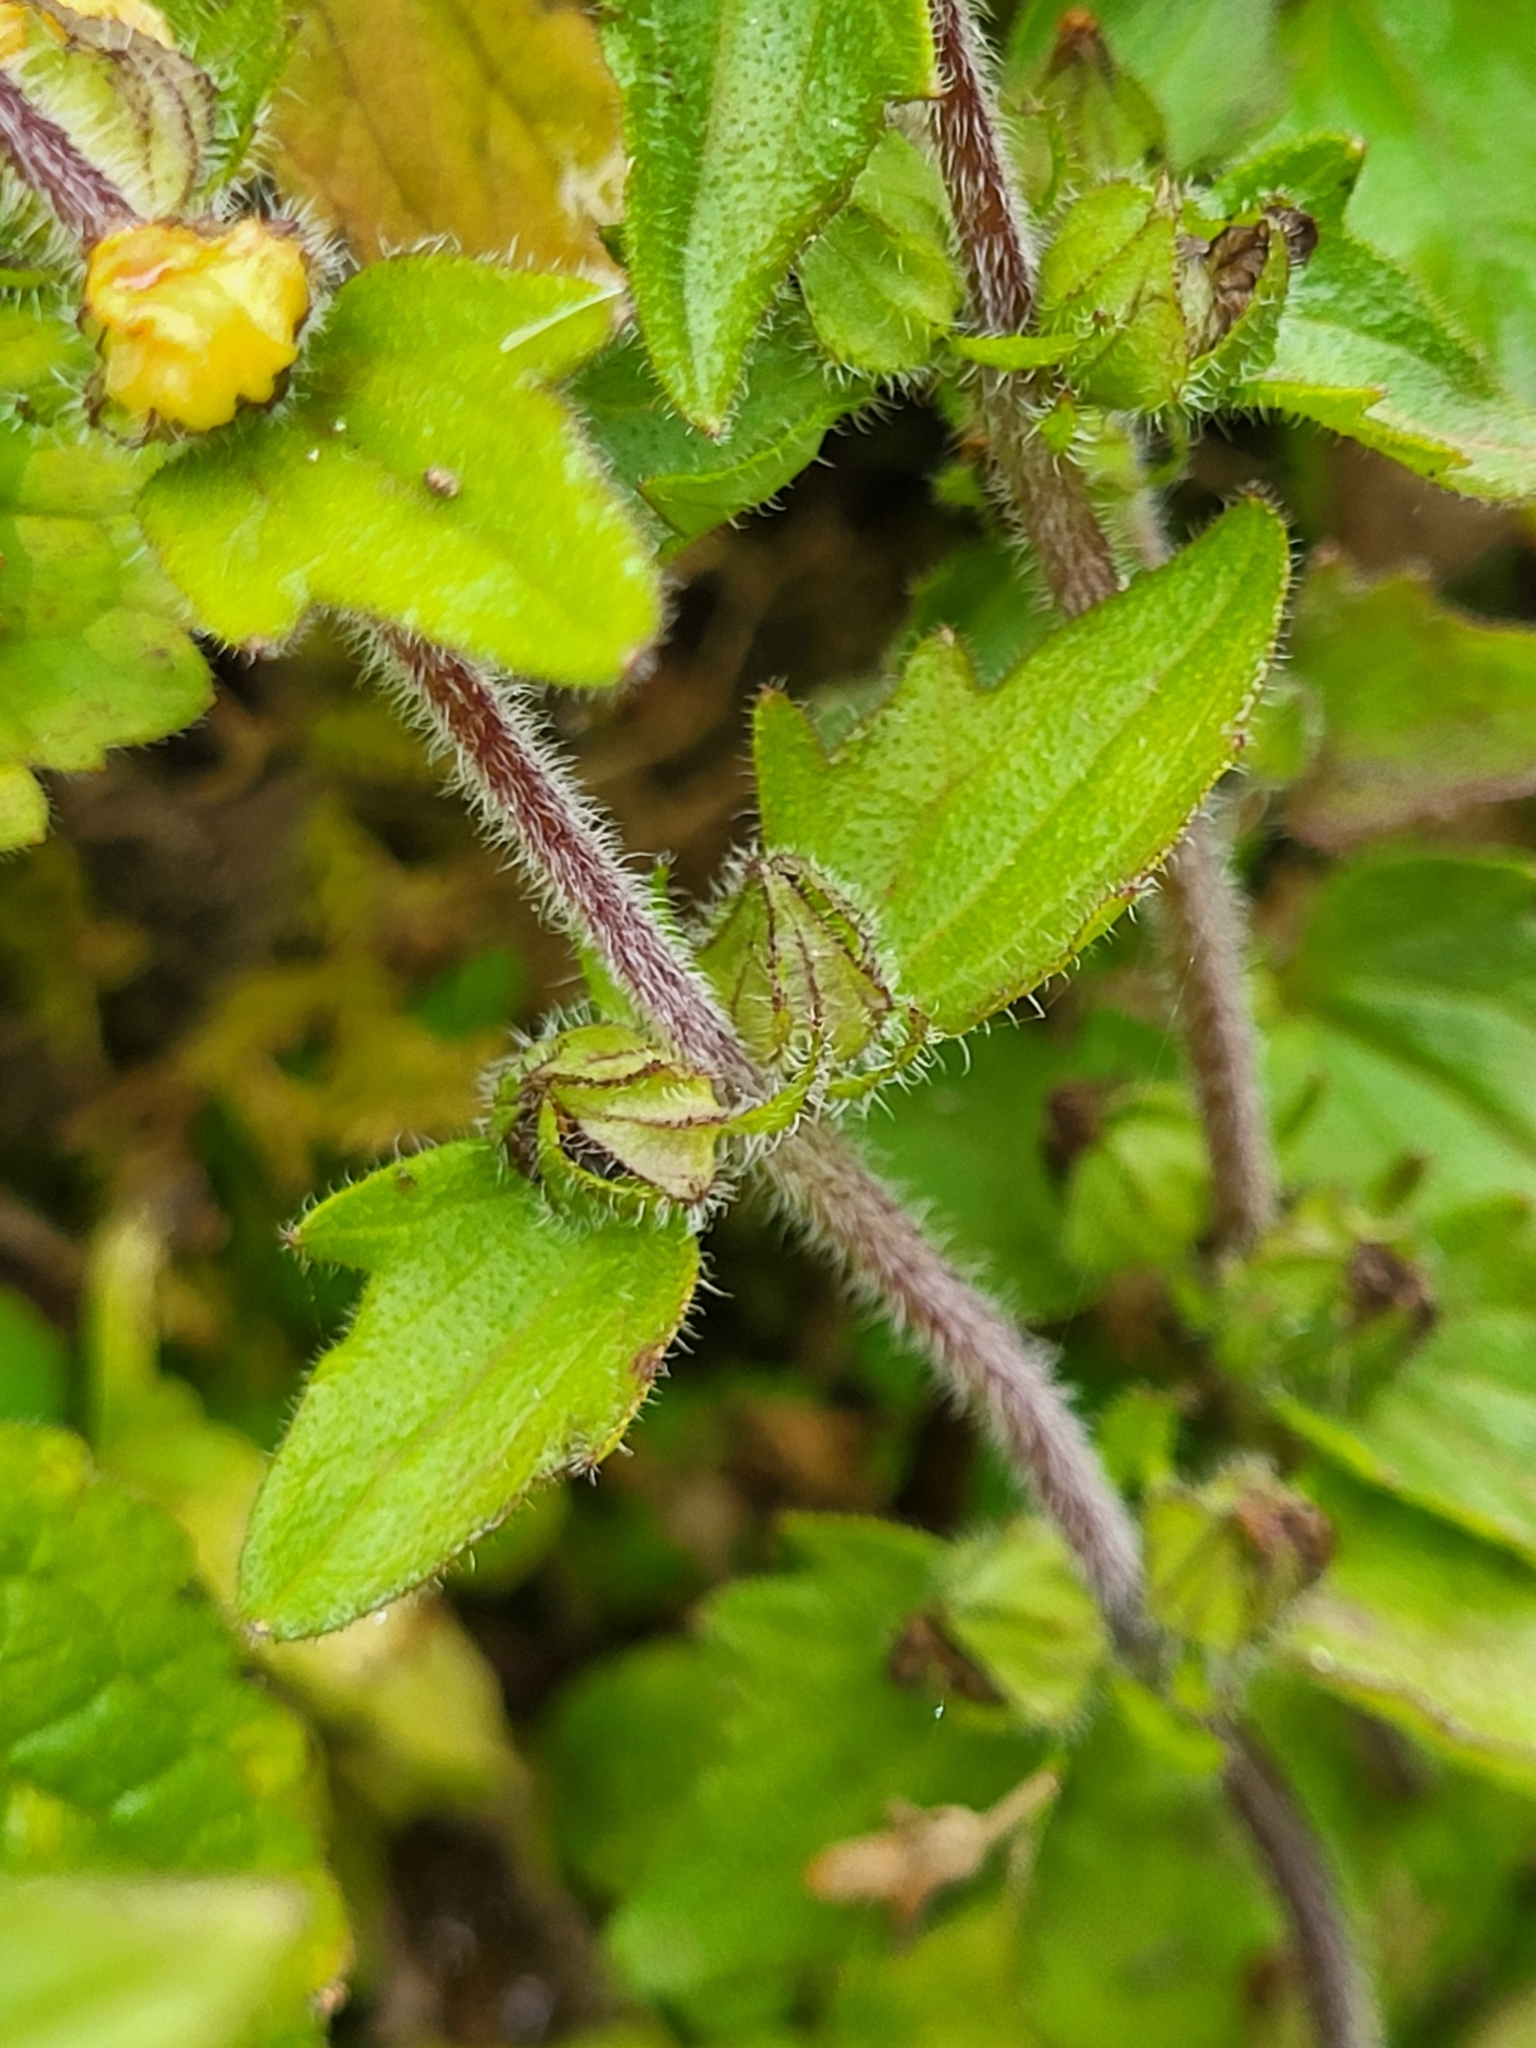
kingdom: Plantae
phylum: Tracheophyta
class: Magnoliopsida
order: Lamiales
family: Orobanchaceae
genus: Alectra
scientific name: Alectra sessiliflora
